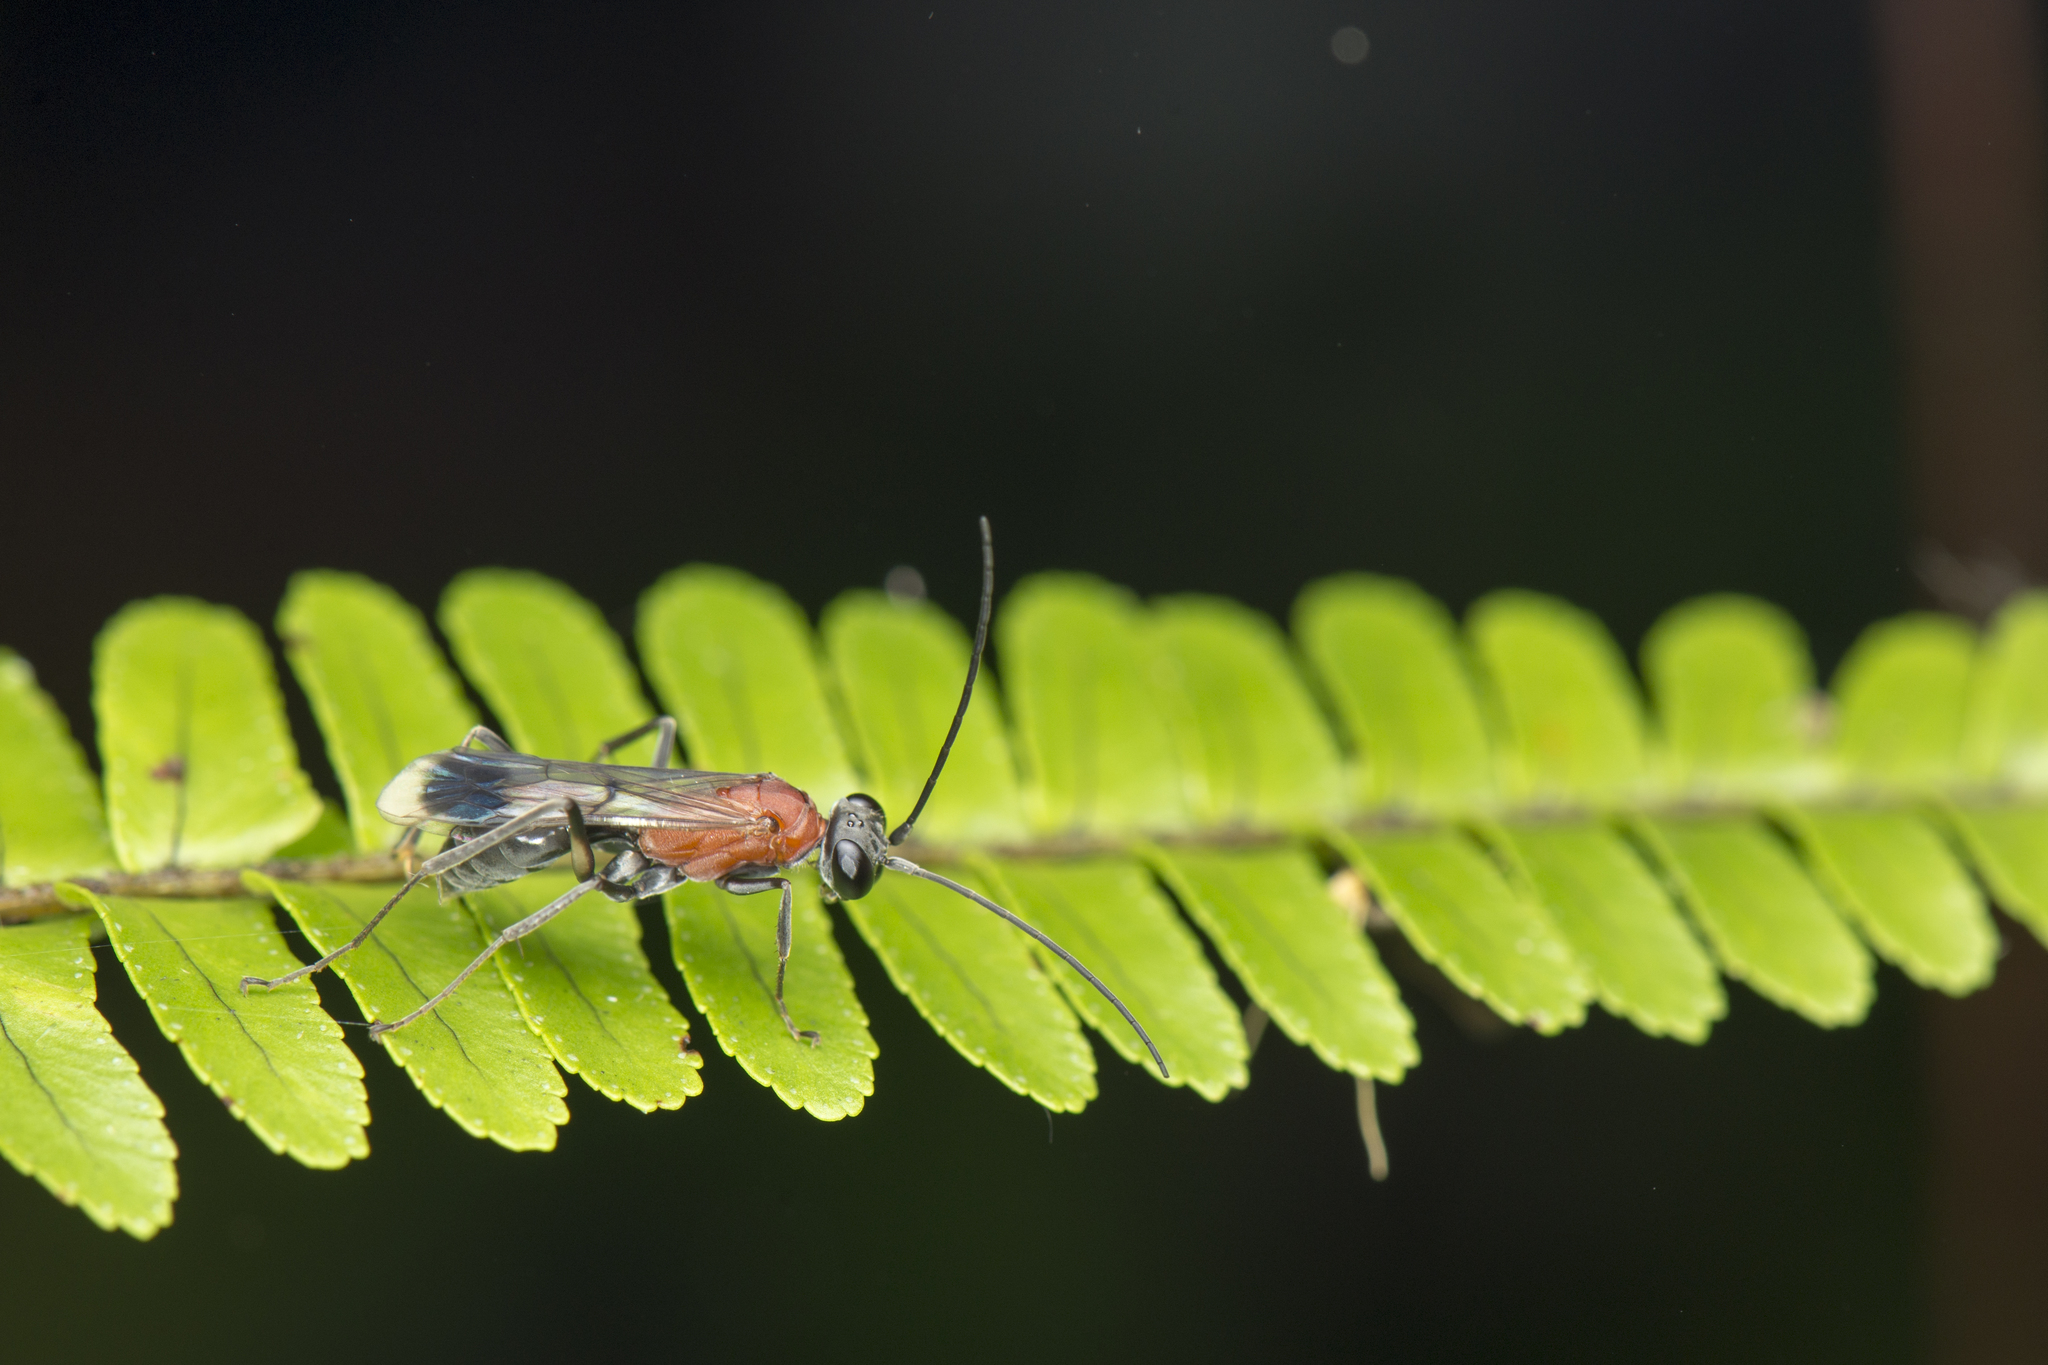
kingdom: Animalia
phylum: Arthropoda
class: Insecta
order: Hymenoptera
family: Pompilidae
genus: Auplopus
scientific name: Auplopus aegina
